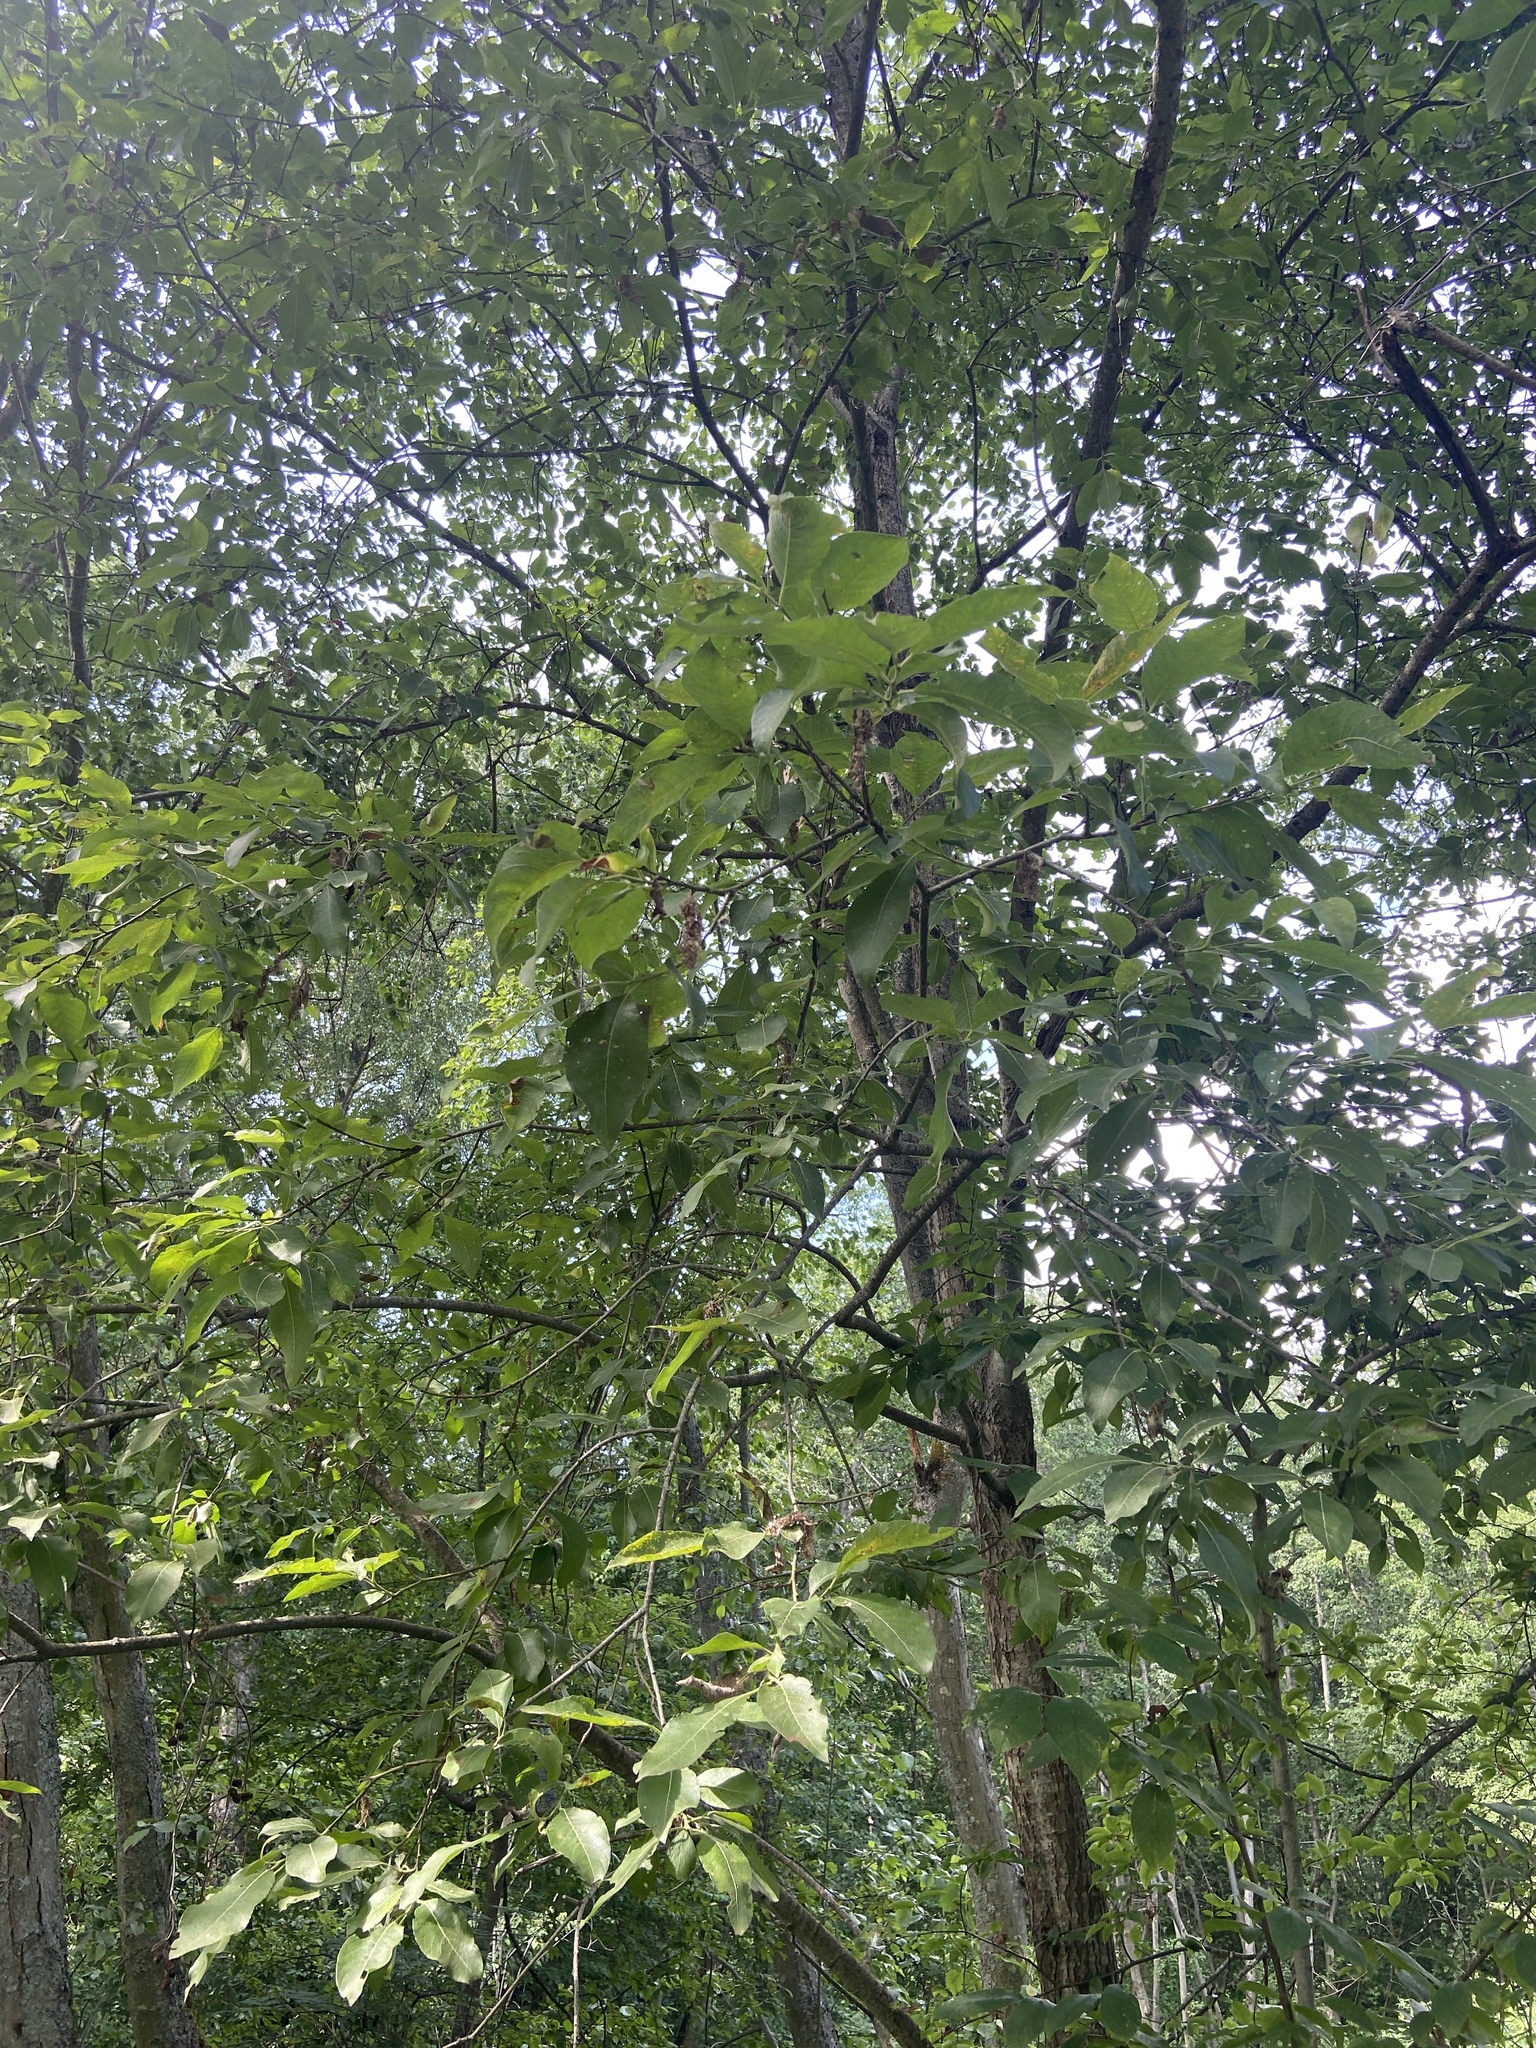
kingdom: Plantae
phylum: Tracheophyta
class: Magnoliopsida
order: Malpighiales
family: Salicaceae
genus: Salix
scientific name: Salix caprea
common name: Goat willow
